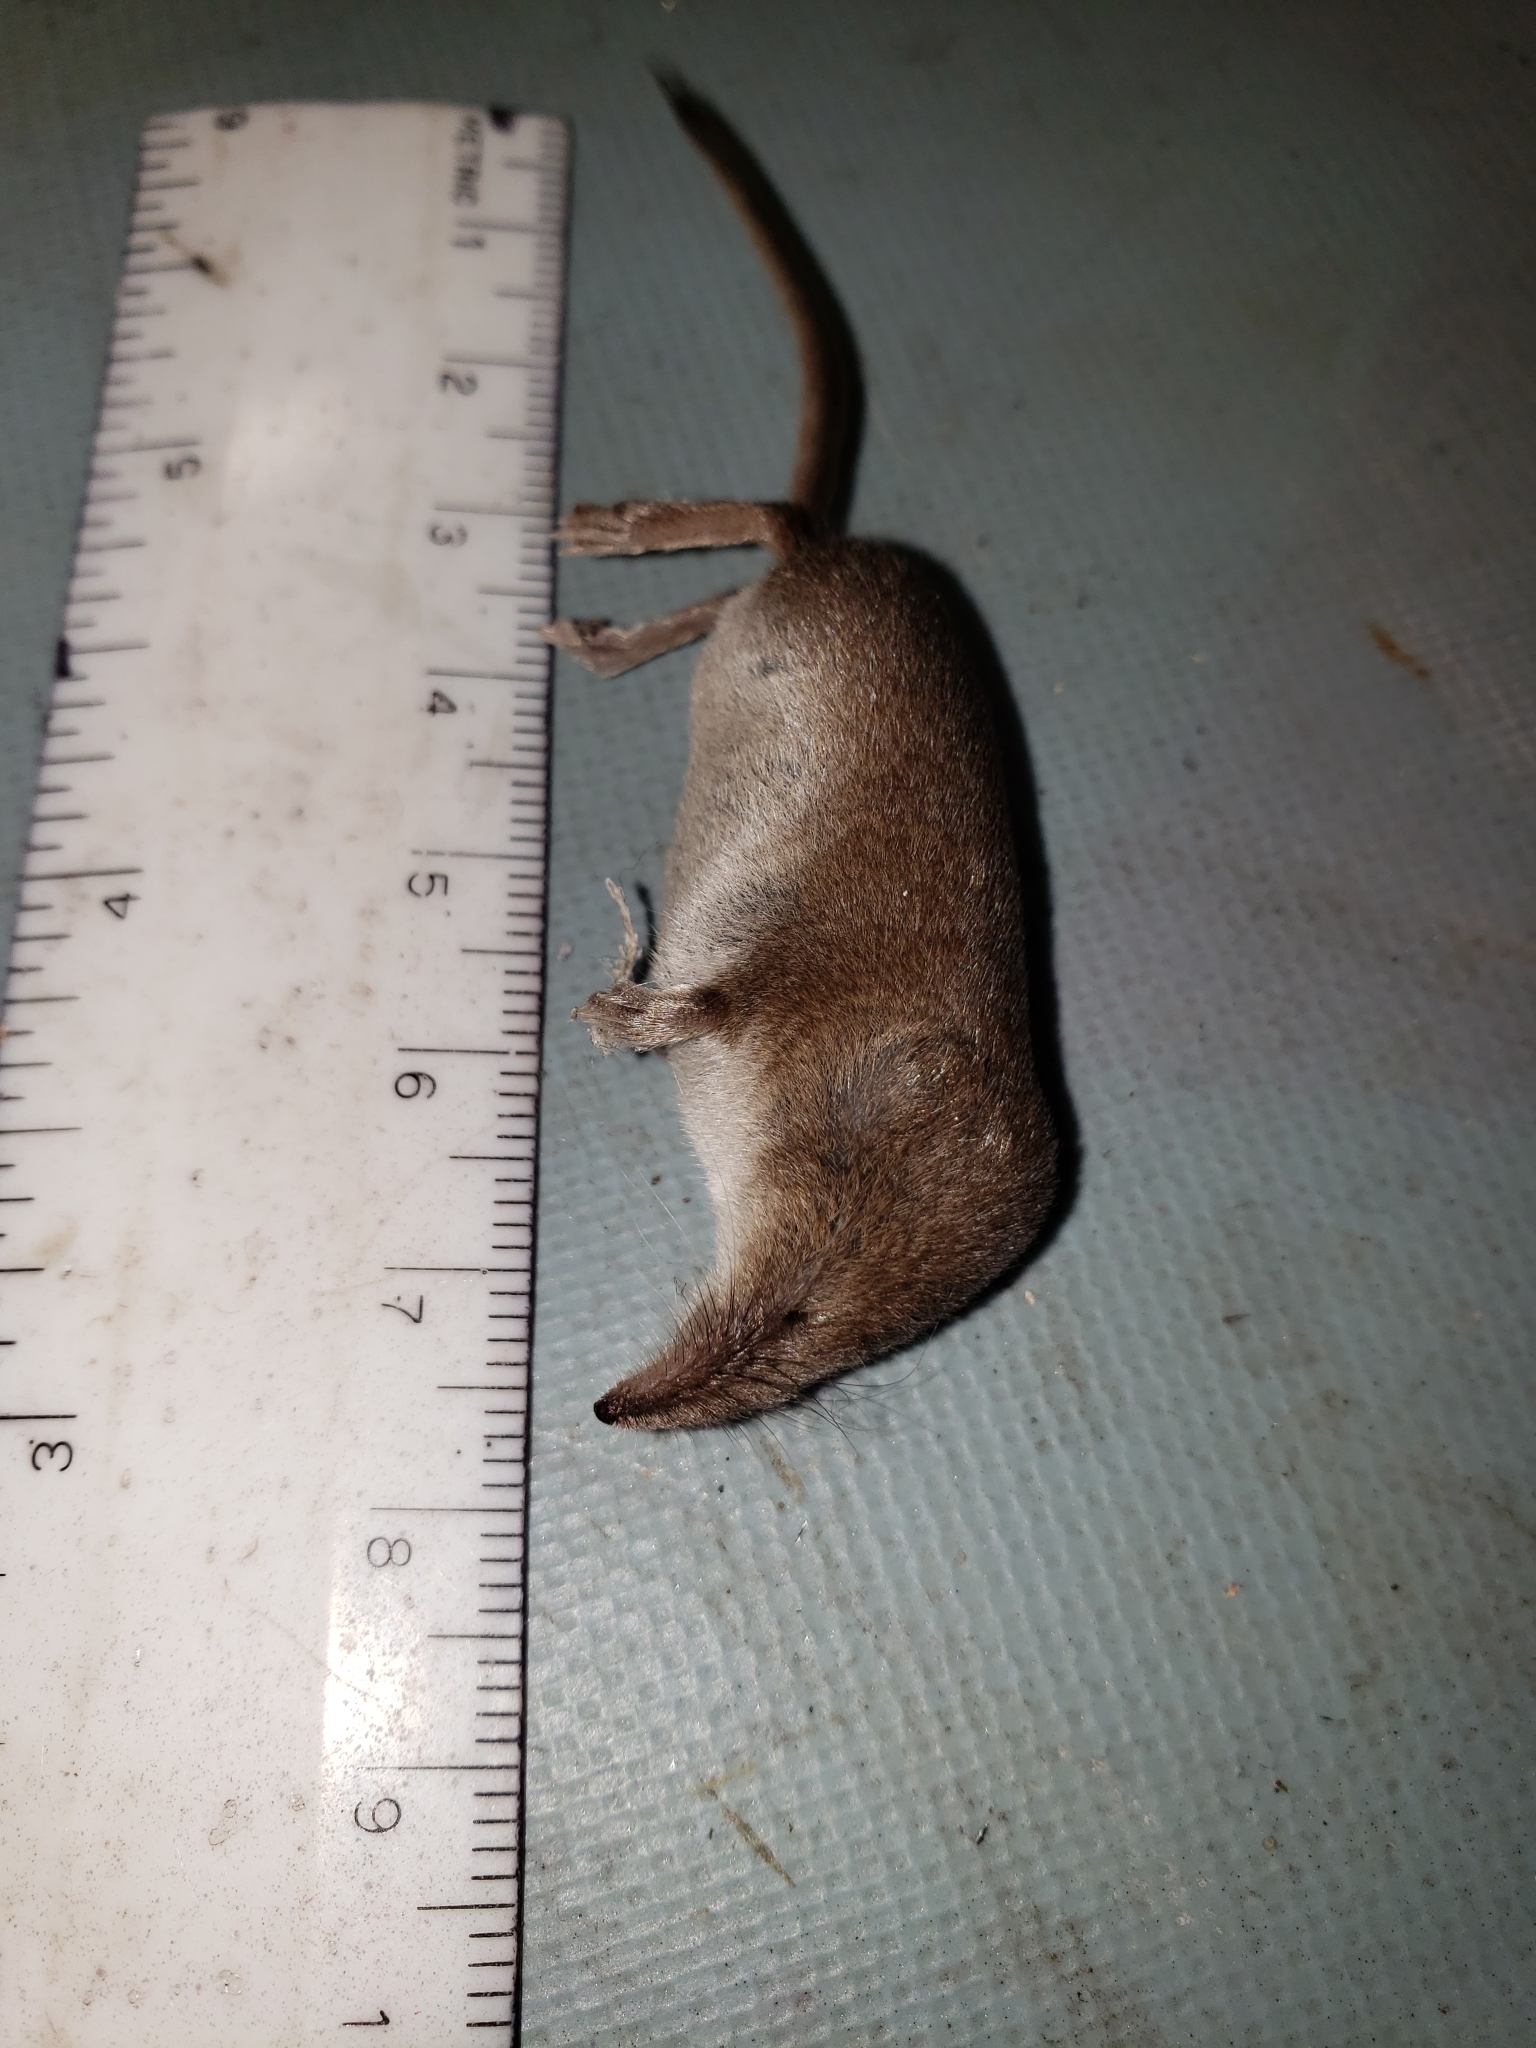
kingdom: Animalia
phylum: Chordata
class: Mammalia
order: Soricomorpha
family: Soricidae
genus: Sorex
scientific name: Sorex cinereus
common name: Cinereus shrew
